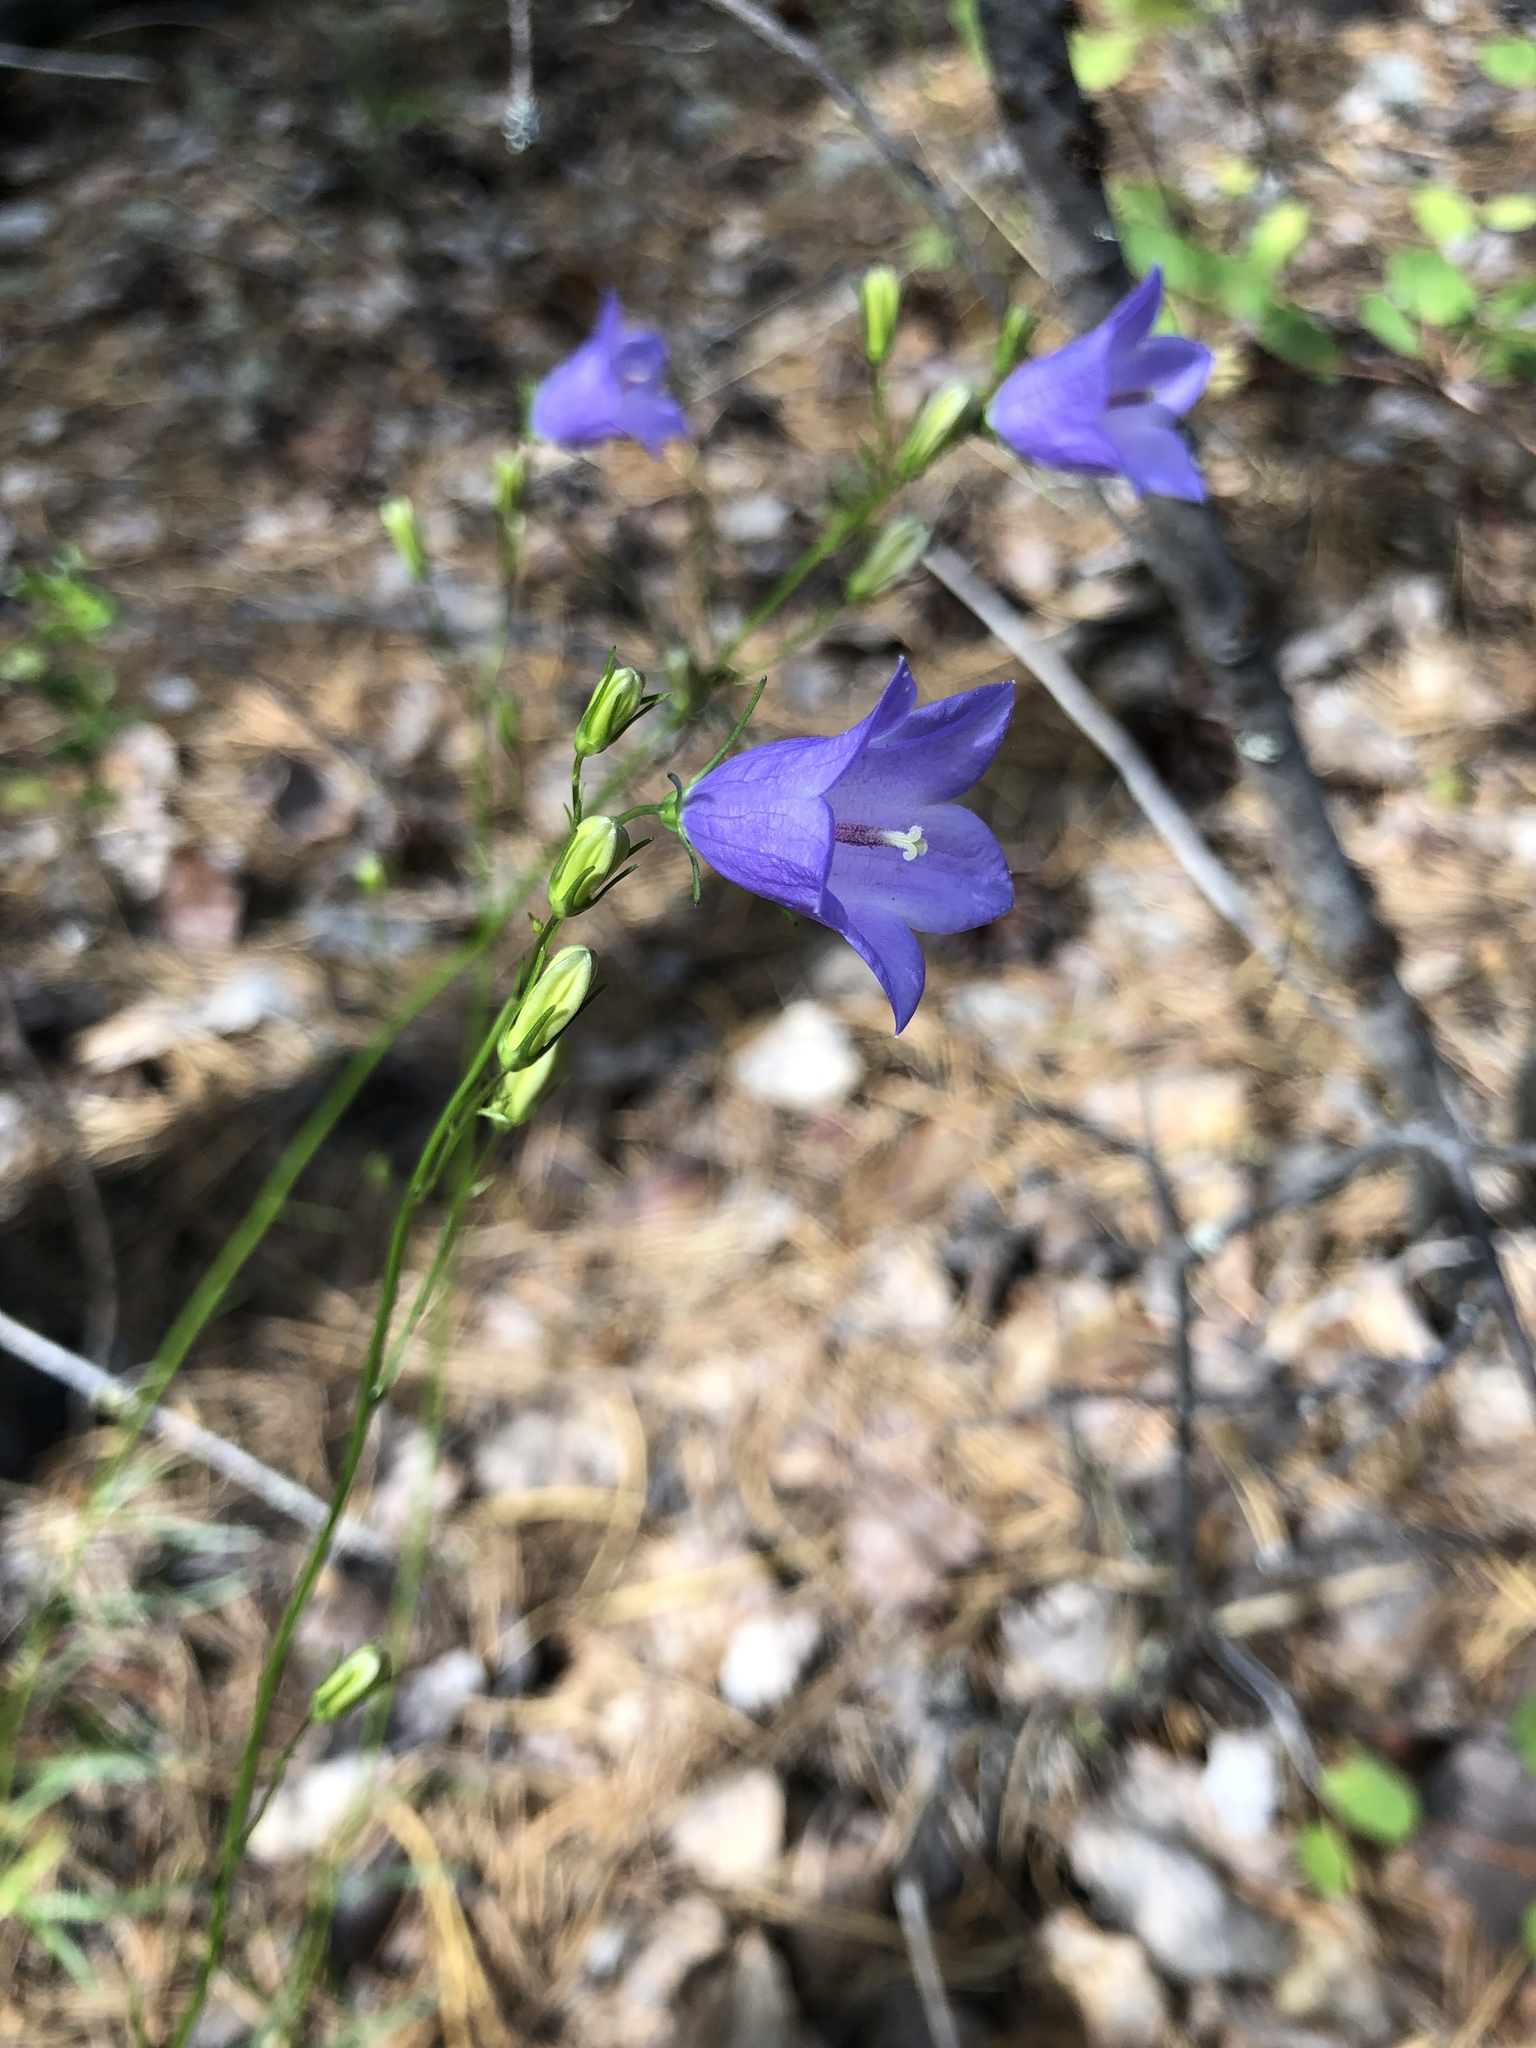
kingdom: Plantae
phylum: Tracheophyta
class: Magnoliopsida
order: Asterales
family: Campanulaceae
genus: Campanula
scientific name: Campanula rotundifolia
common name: Harebell
